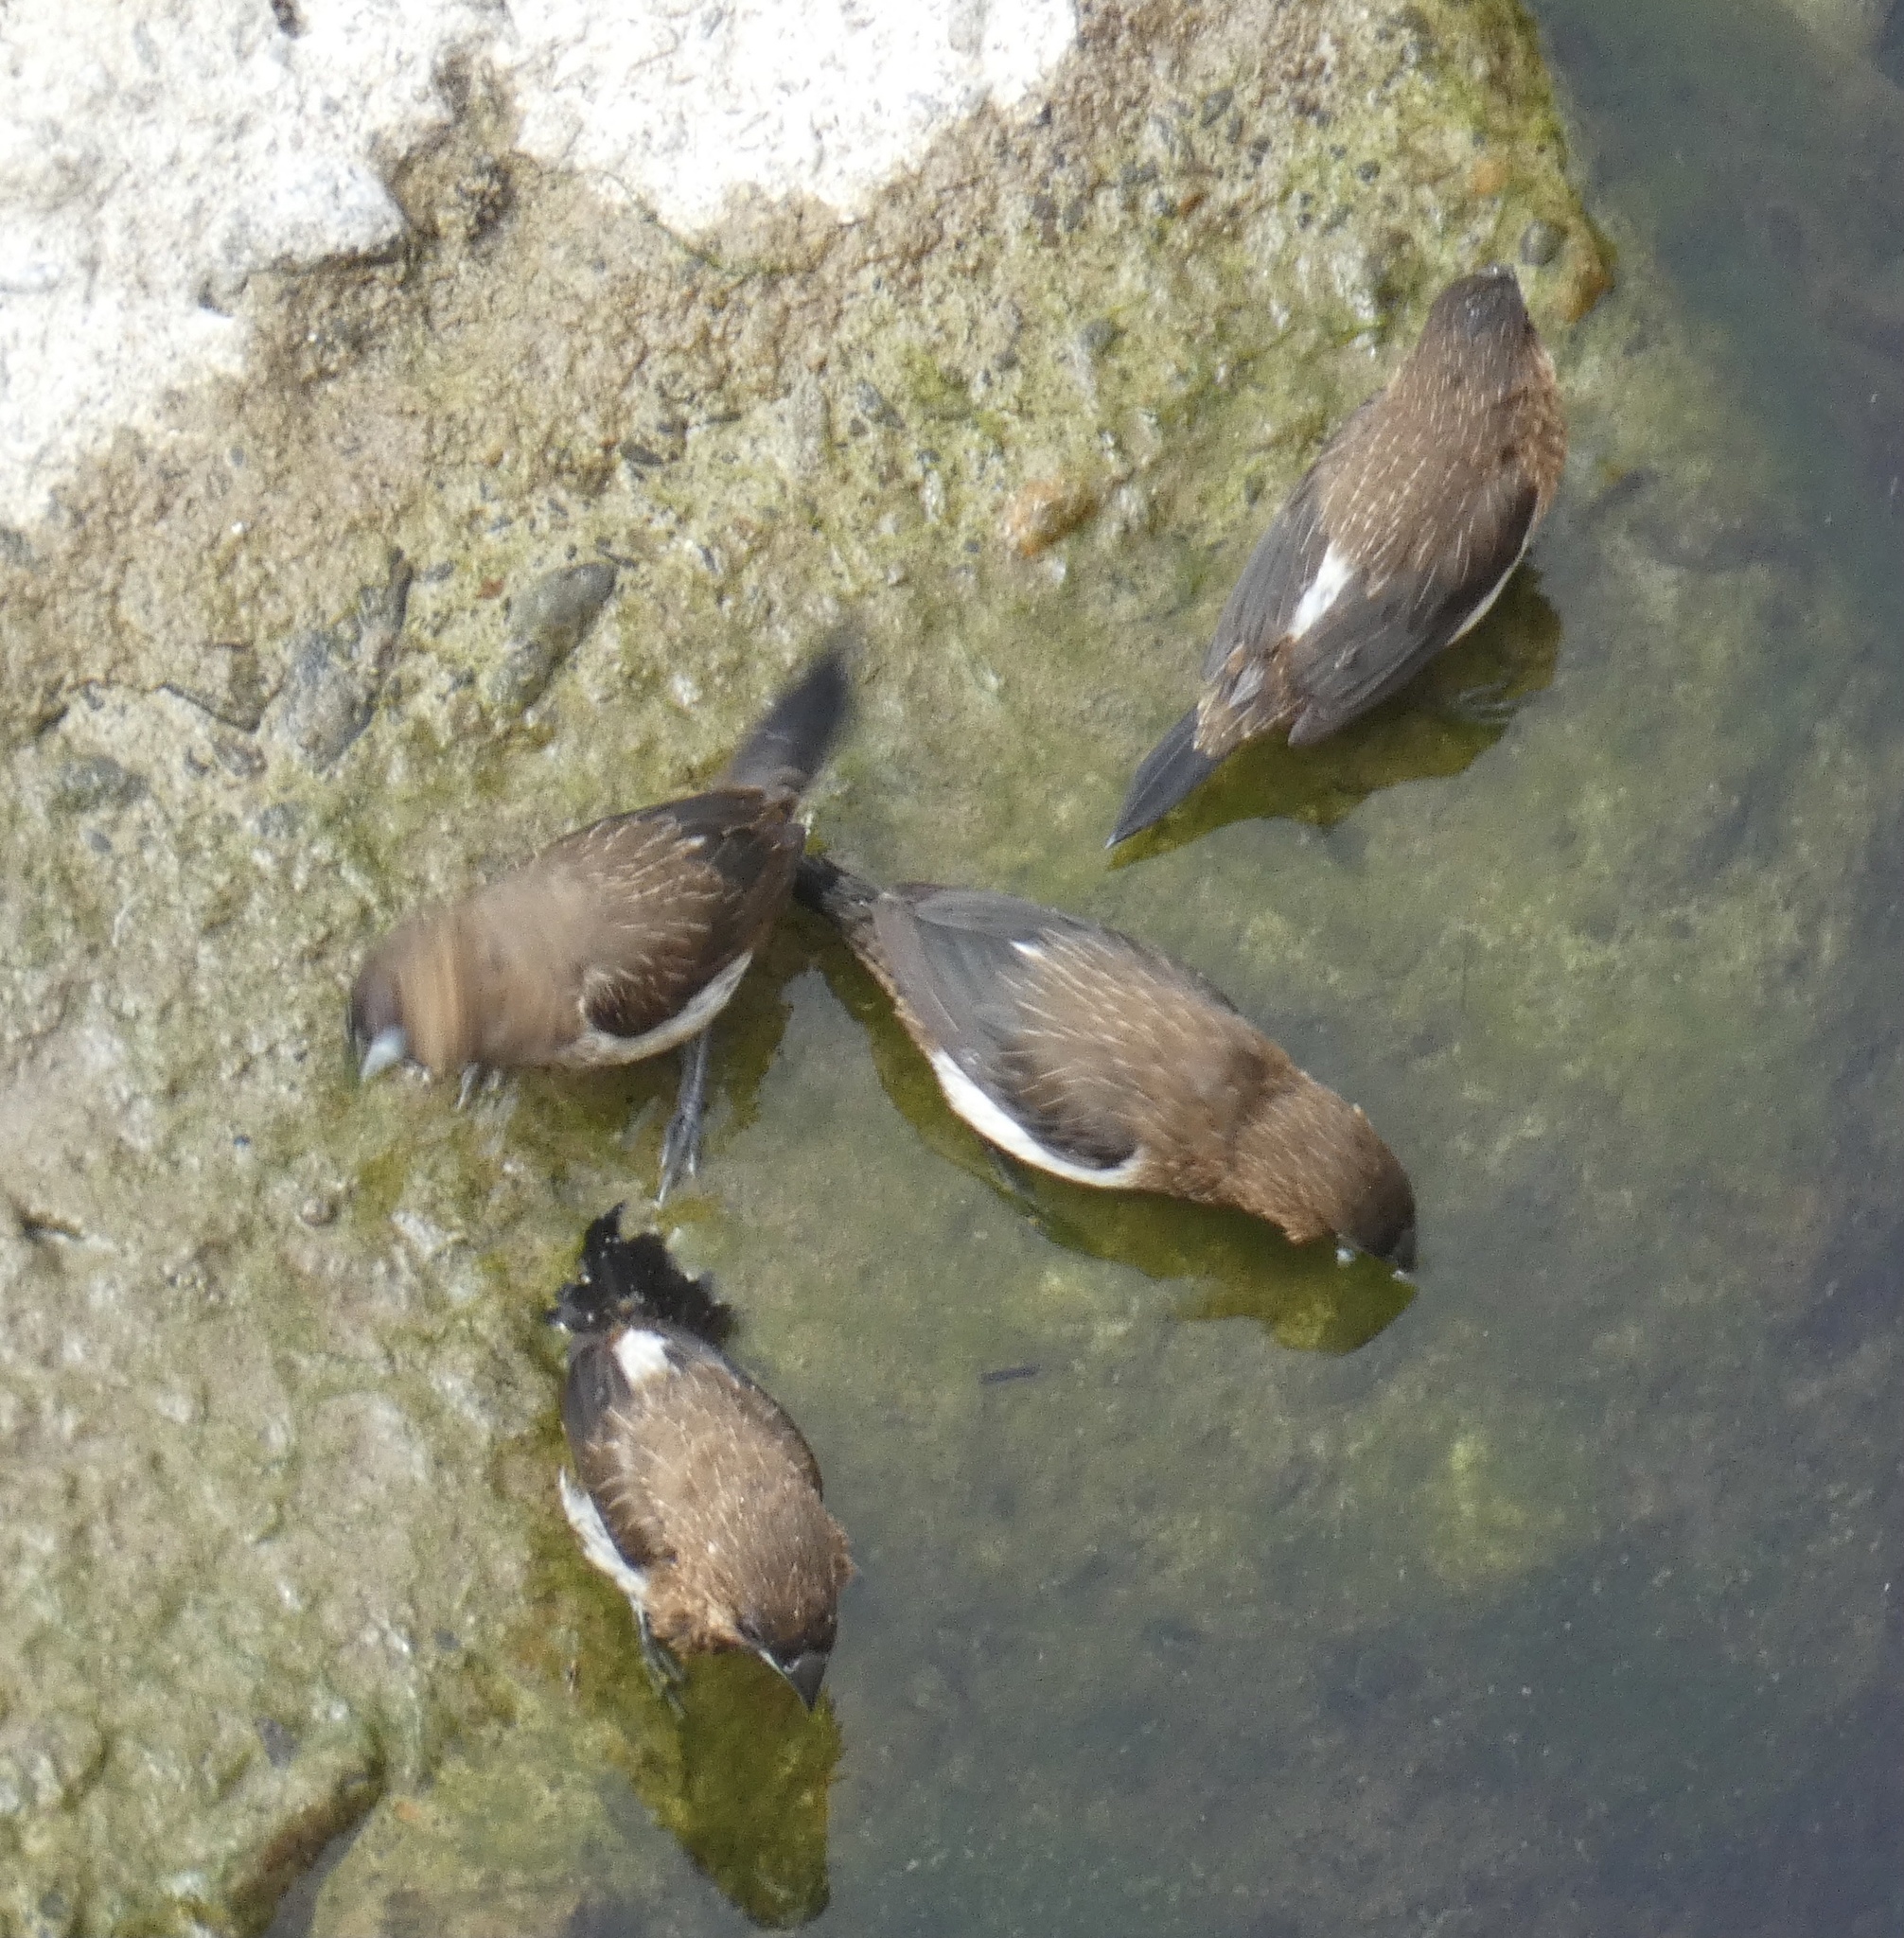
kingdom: Animalia
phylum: Chordata
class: Aves
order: Passeriformes
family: Estrildidae
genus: Lonchura
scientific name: Lonchura striata
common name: White-rumped munia
